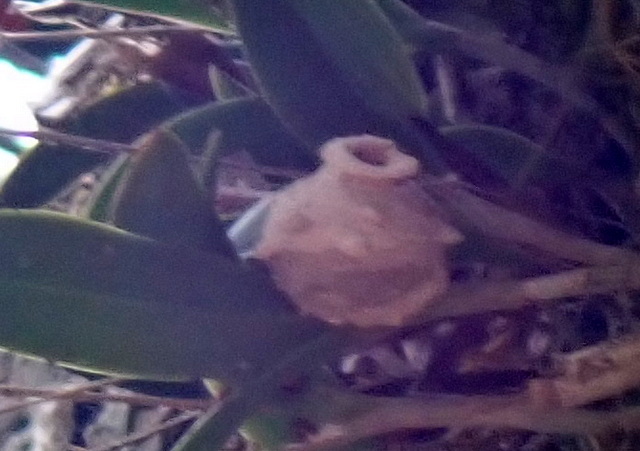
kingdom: Animalia
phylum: Arthropoda
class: Insecta
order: Hymenoptera
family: Vespidae
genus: Eumenes
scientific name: Eumenes fraternus
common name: Fraternal potter wasp
